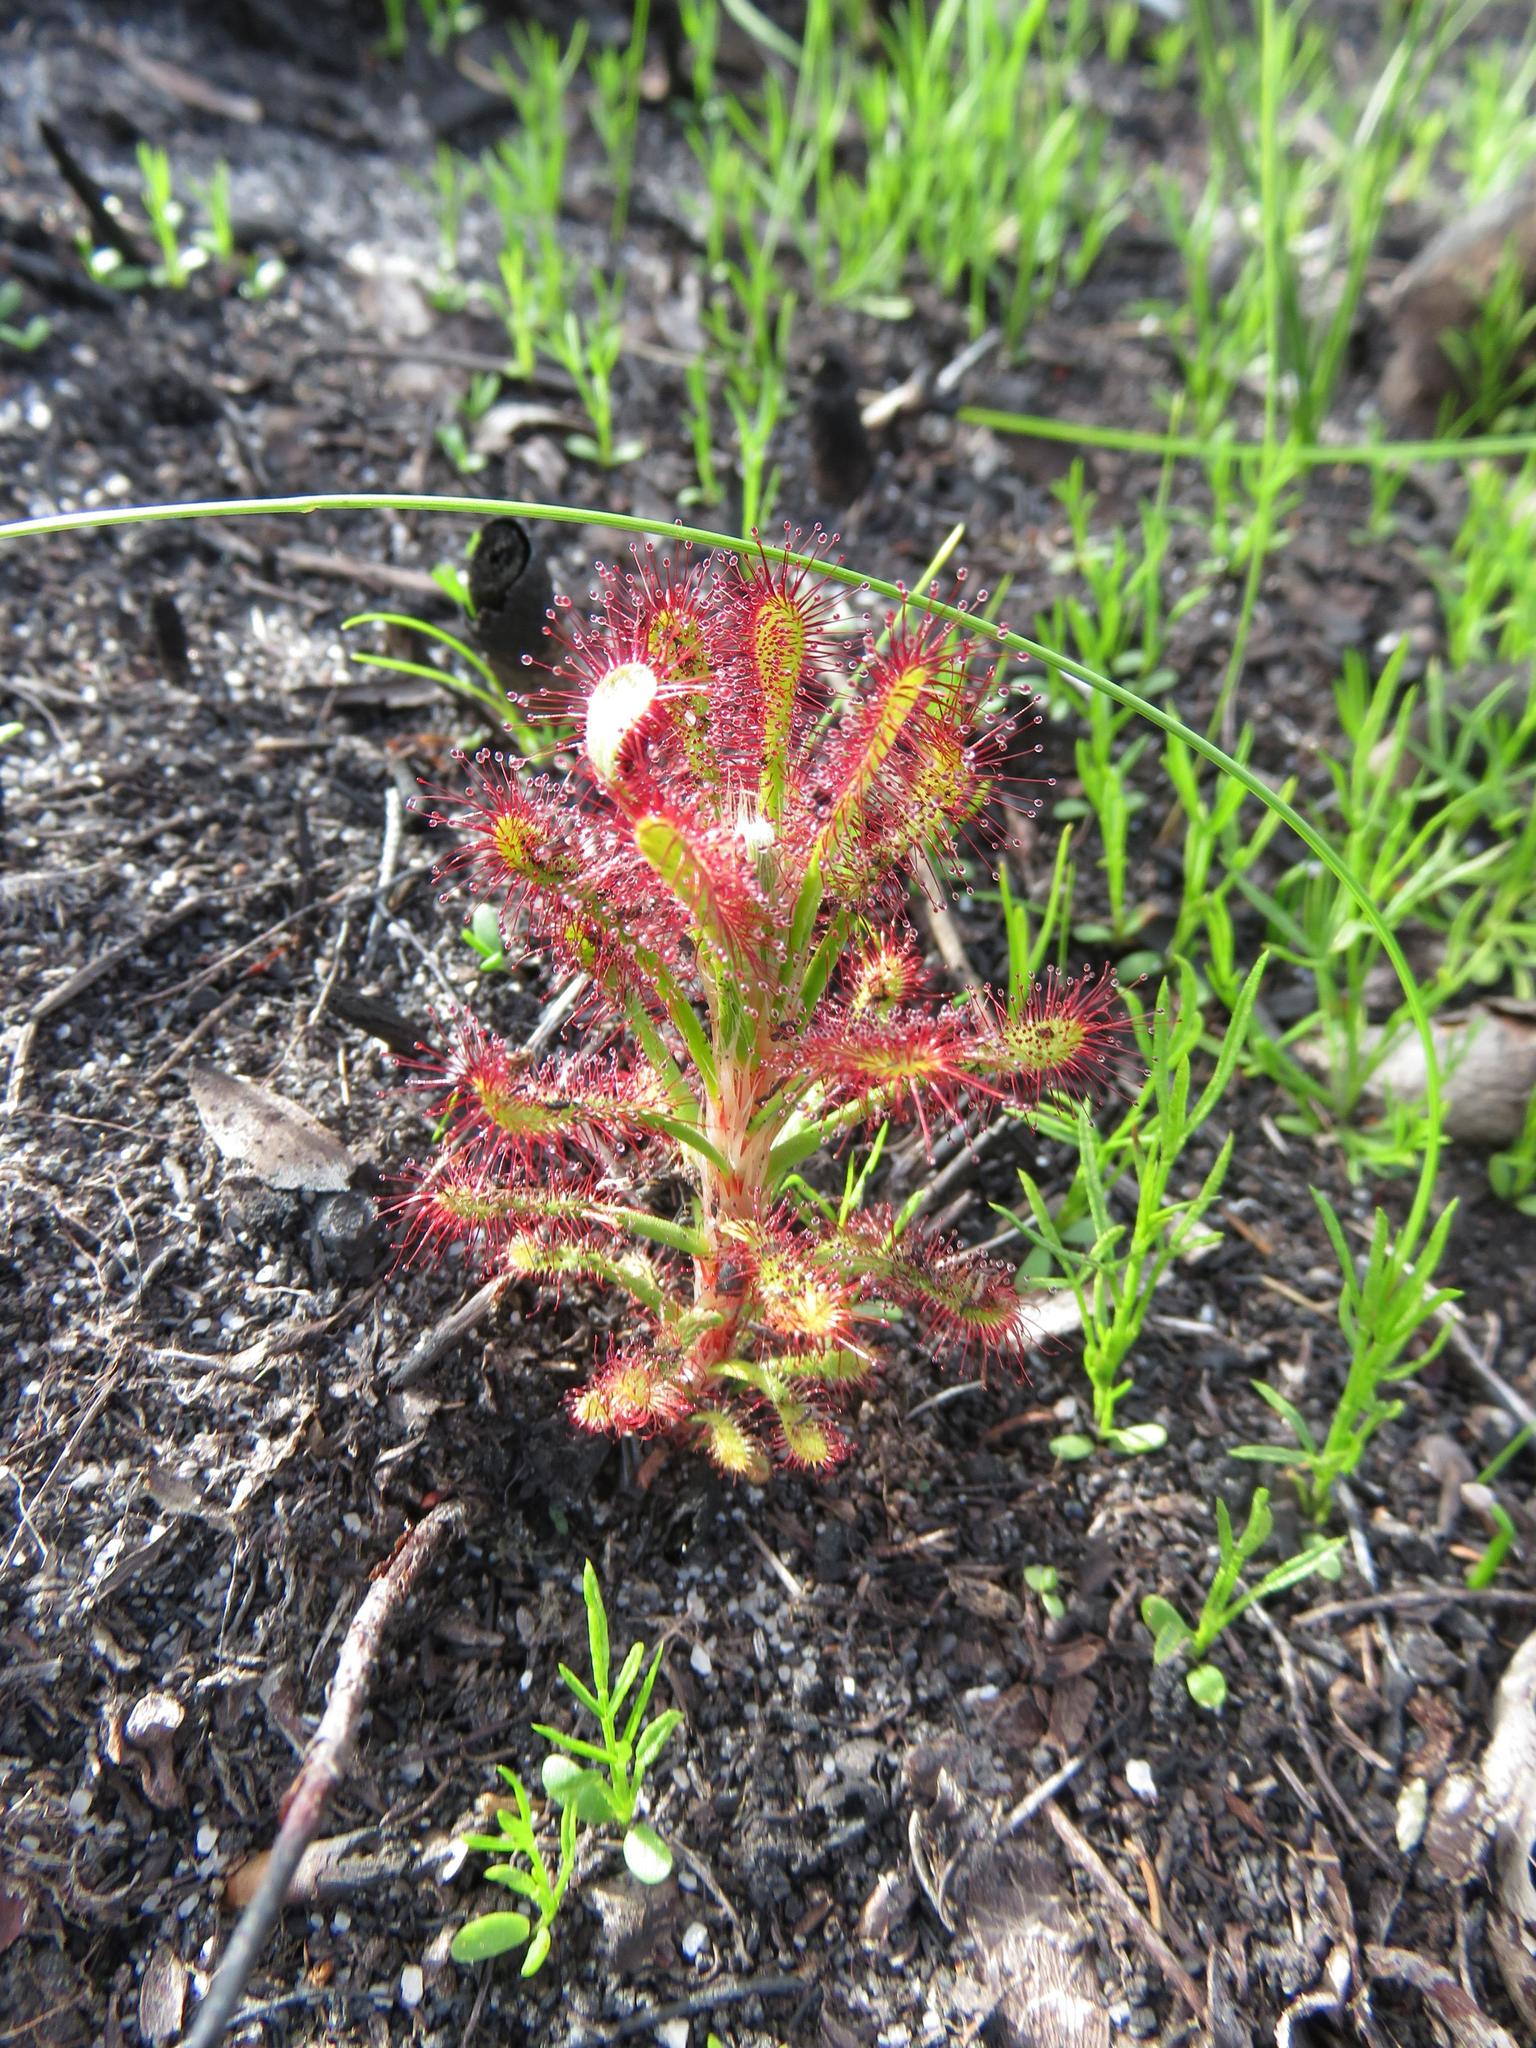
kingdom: Plantae
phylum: Tracheophyta
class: Magnoliopsida
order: Caryophyllales
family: Droseraceae
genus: Drosera
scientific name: Drosera glabripes
